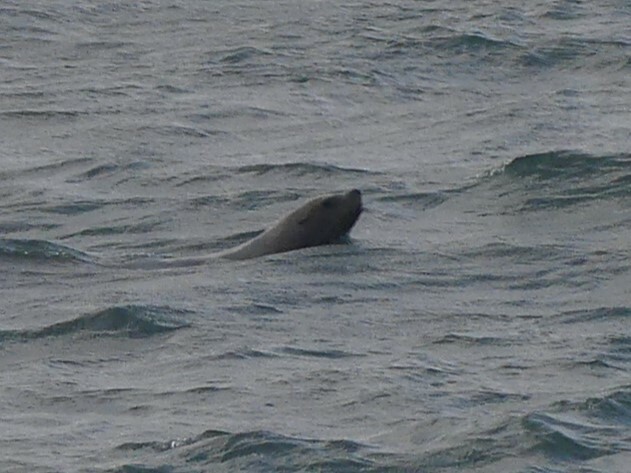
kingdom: Animalia
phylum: Chordata
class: Mammalia
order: Carnivora
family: Otariidae
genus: Eumetopias
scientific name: Eumetopias jubatus
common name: Steller sea lion
